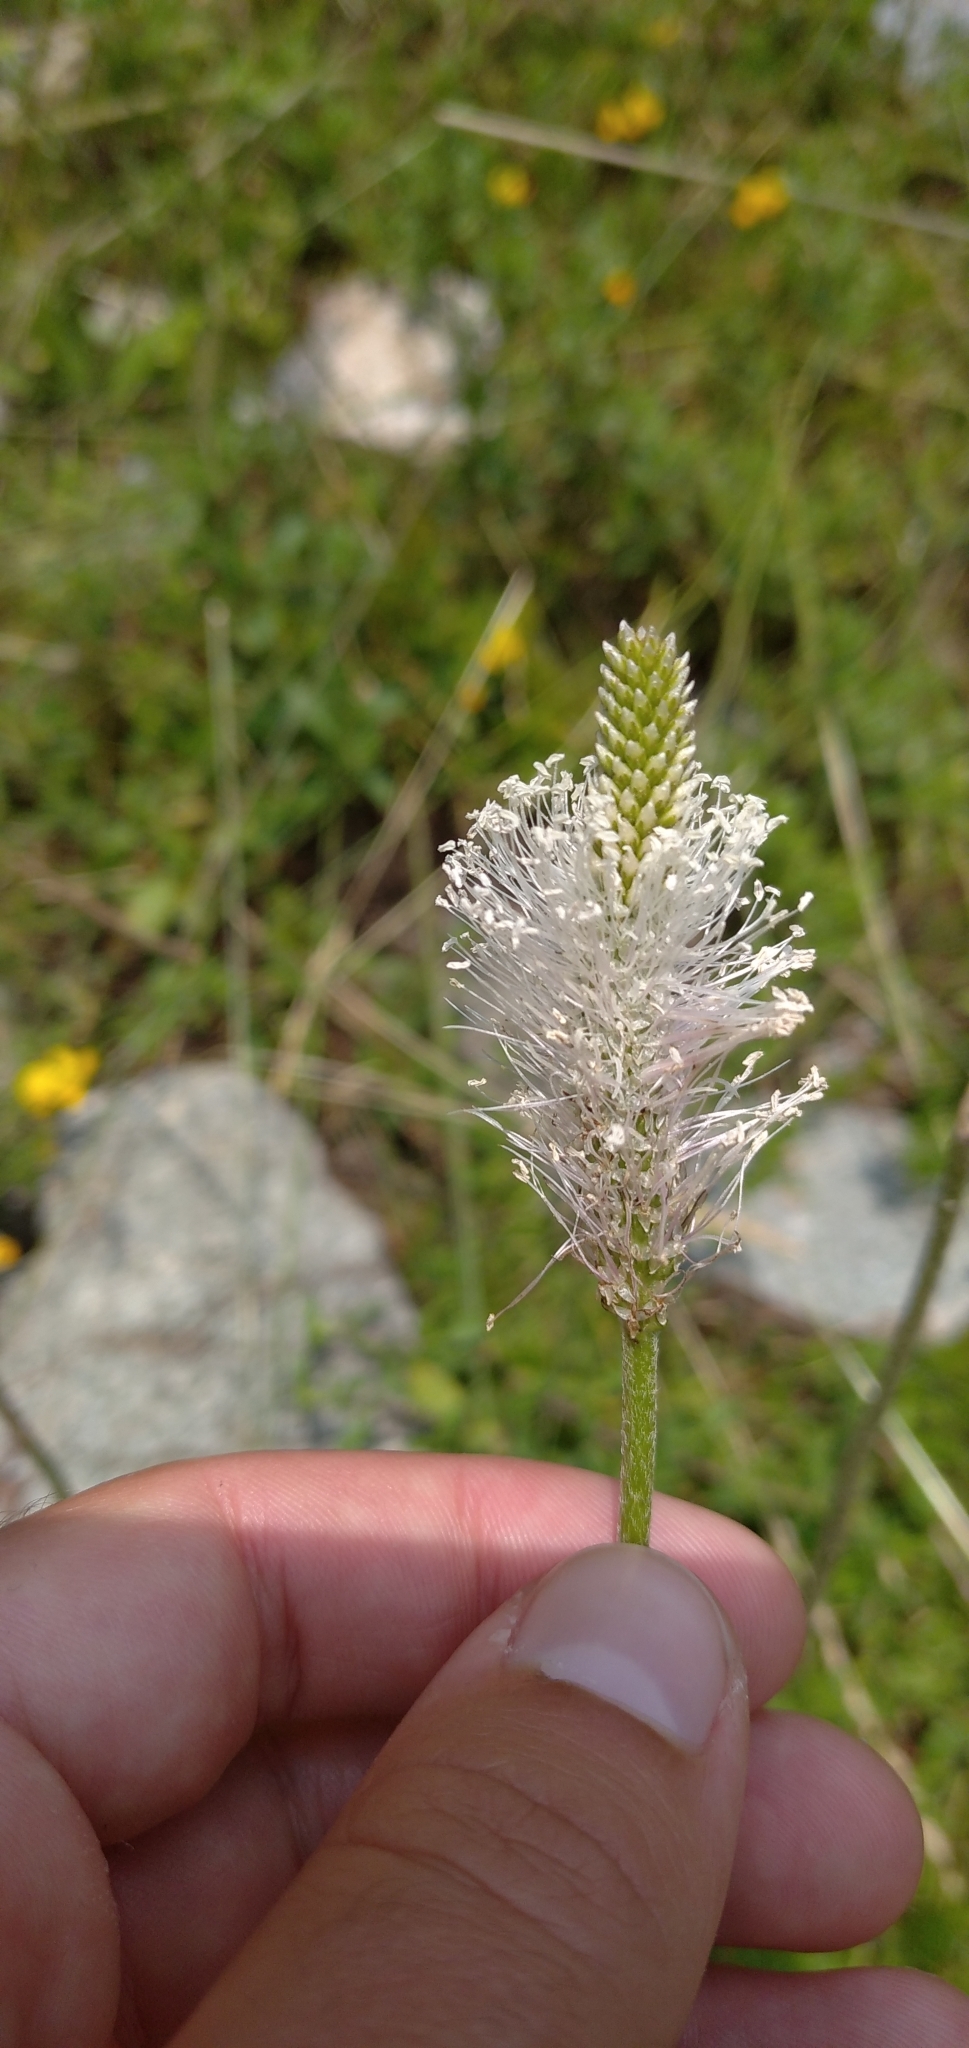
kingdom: Plantae
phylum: Tracheophyta
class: Magnoliopsida
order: Lamiales
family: Plantaginaceae
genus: Plantago
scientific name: Plantago media
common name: Hoary plantain
